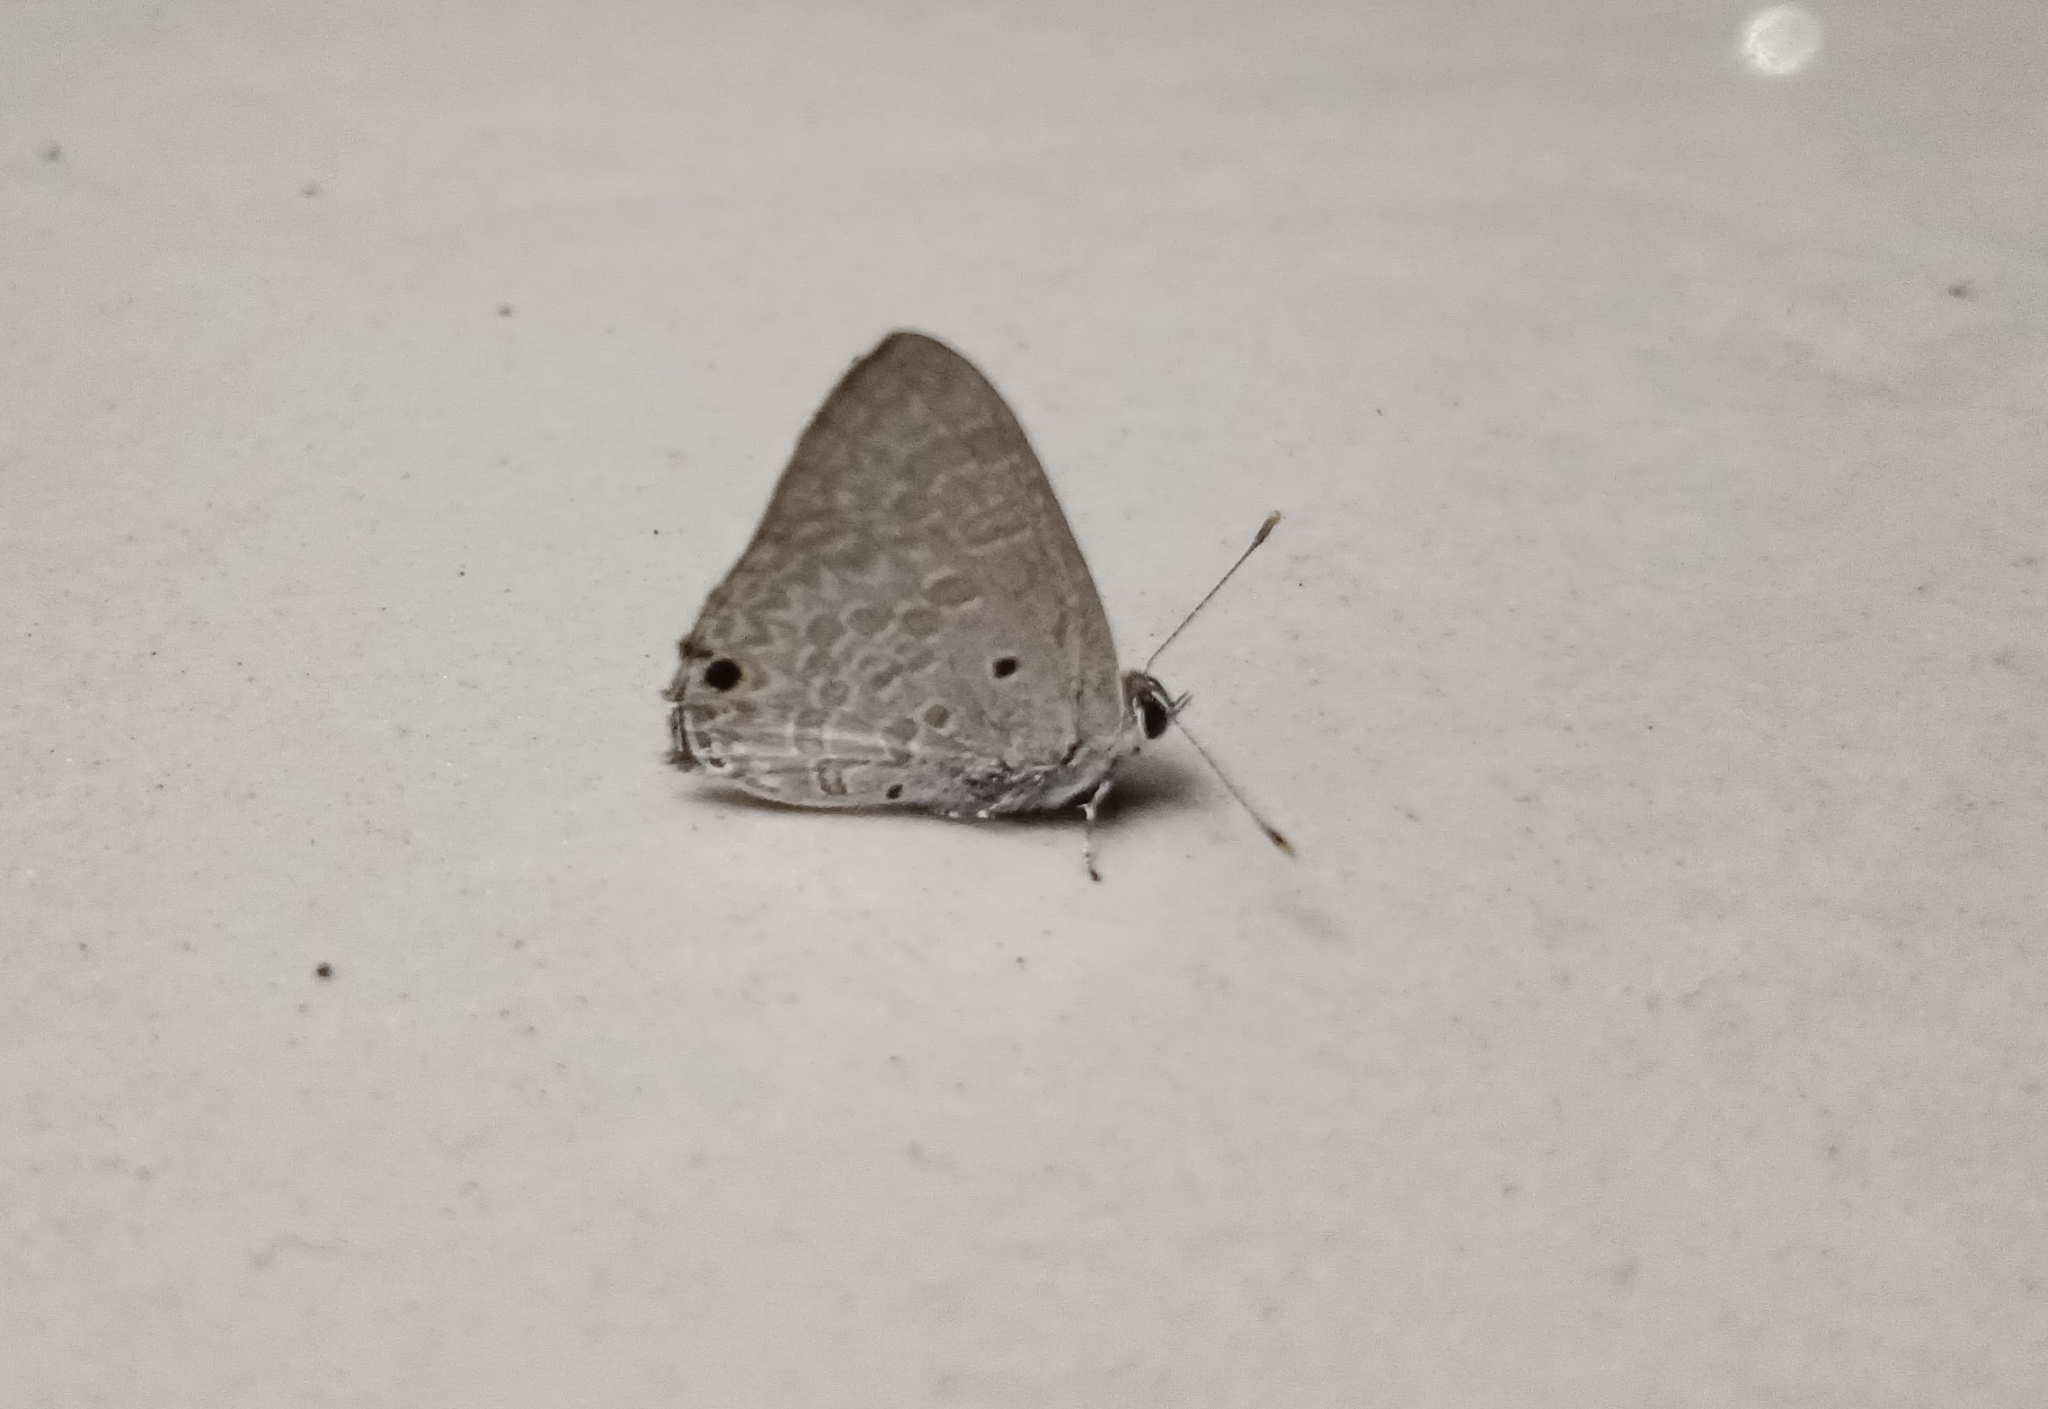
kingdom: Animalia
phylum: Arthropoda
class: Insecta
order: Lepidoptera
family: Lycaenidae
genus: Anthene
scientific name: Anthene lycaenina
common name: Pointed ciliate blue
